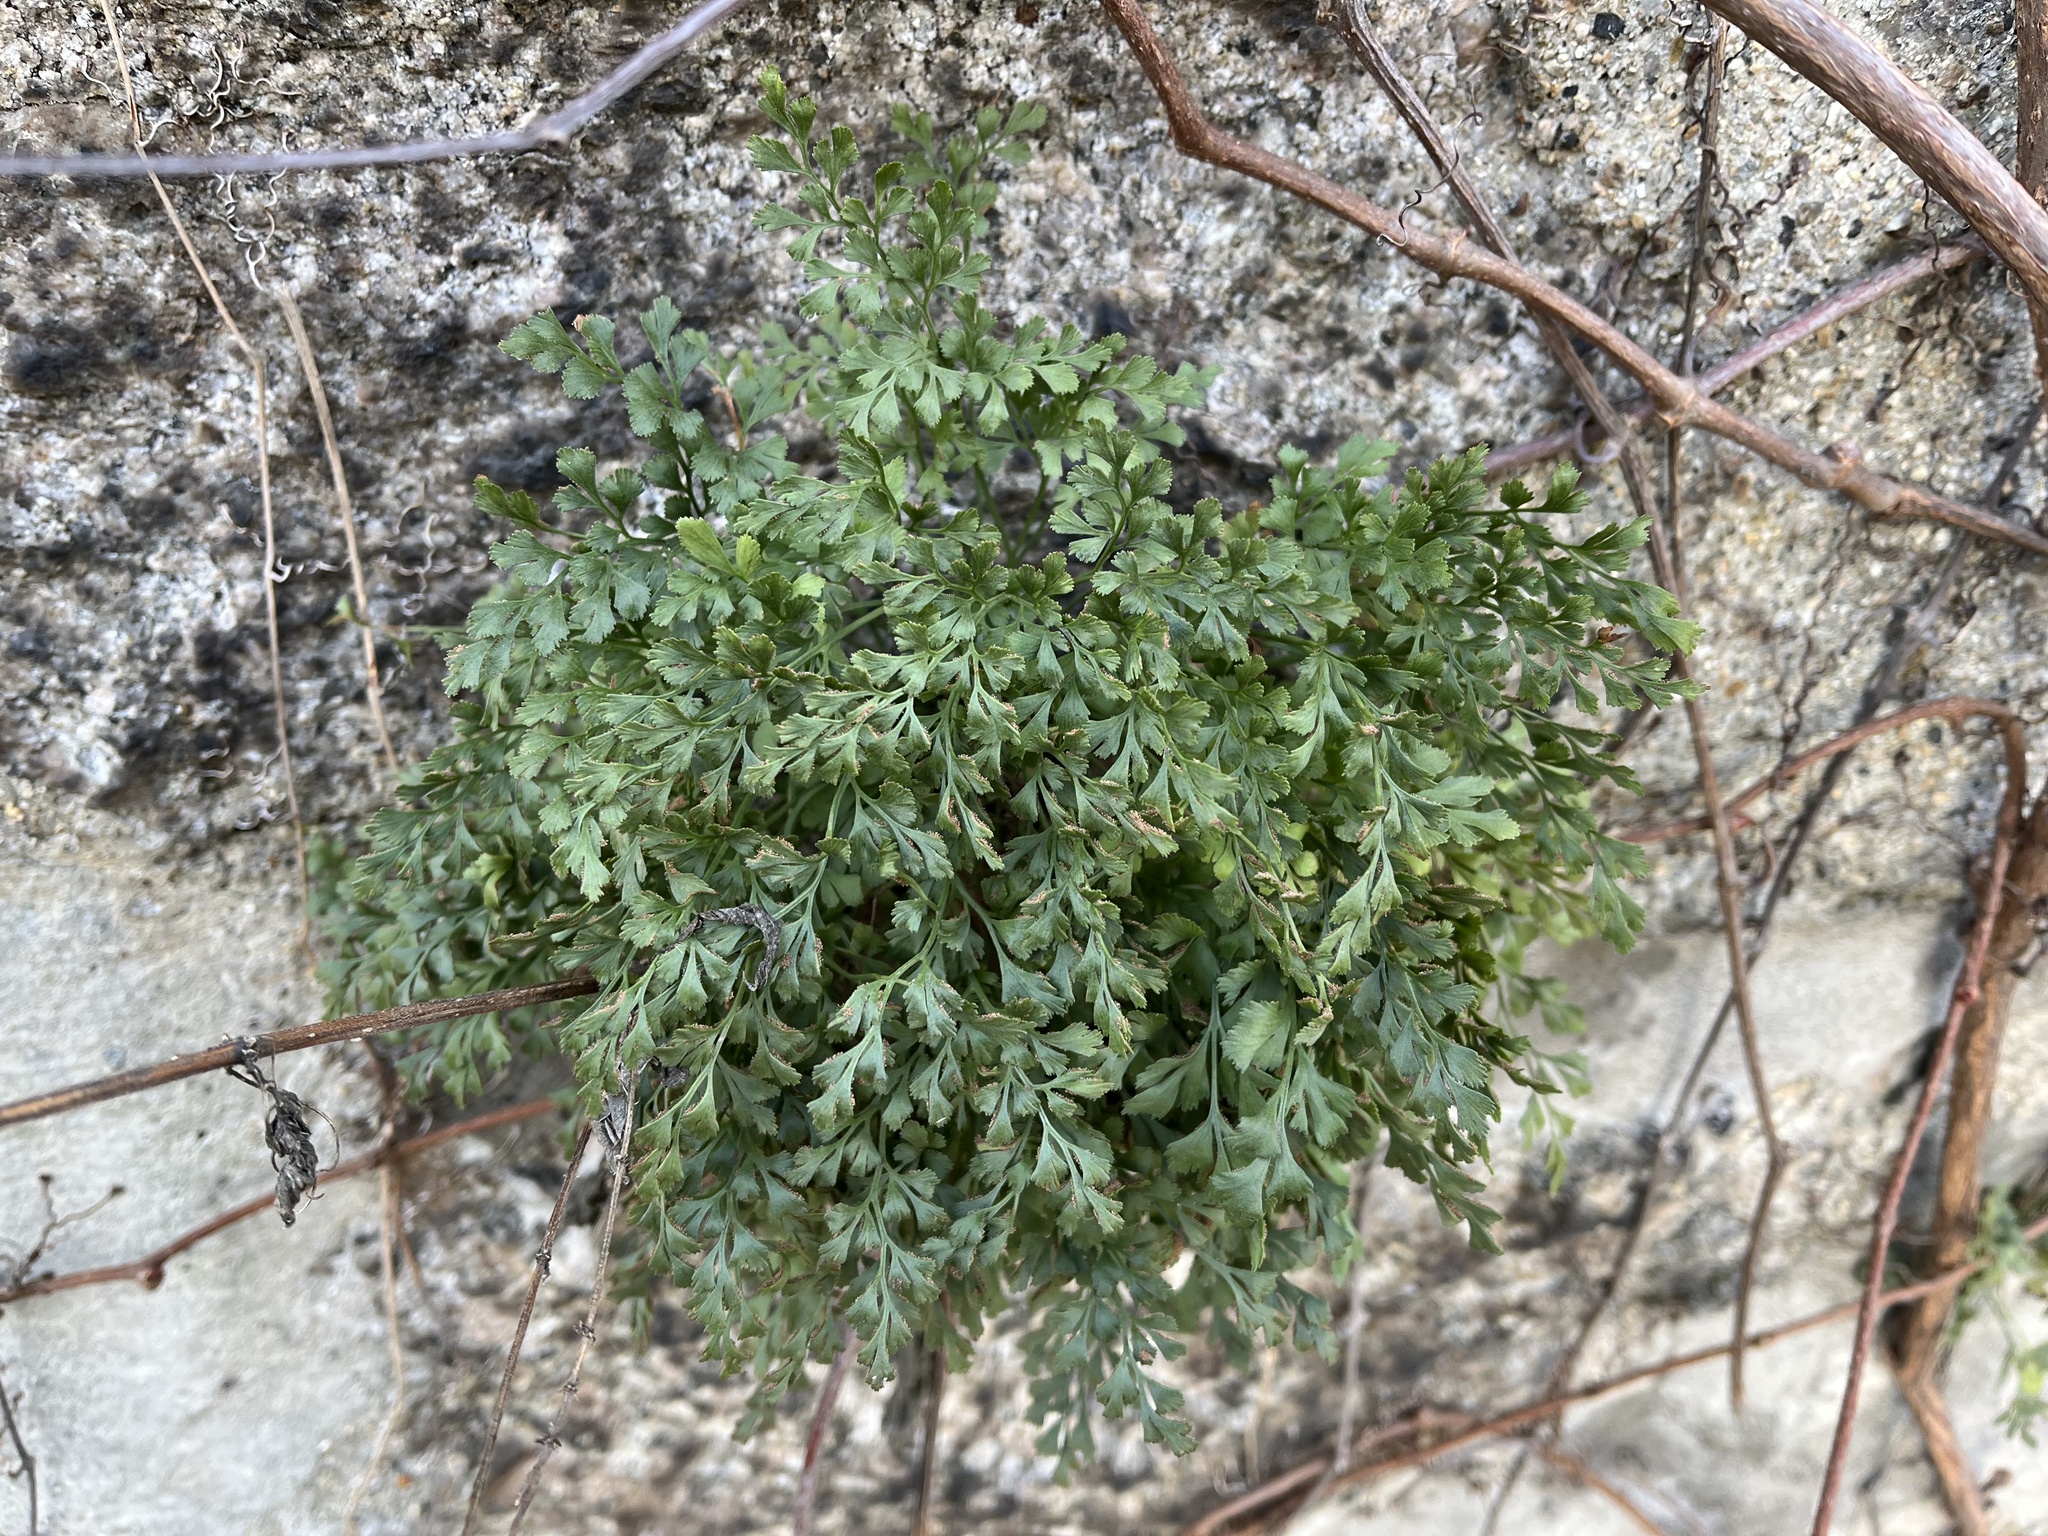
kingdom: Plantae
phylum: Tracheophyta
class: Polypodiopsida
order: Polypodiales
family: Aspleniaceae
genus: Asplenium
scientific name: Asplenium ruta-muraria
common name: Wall-rue
